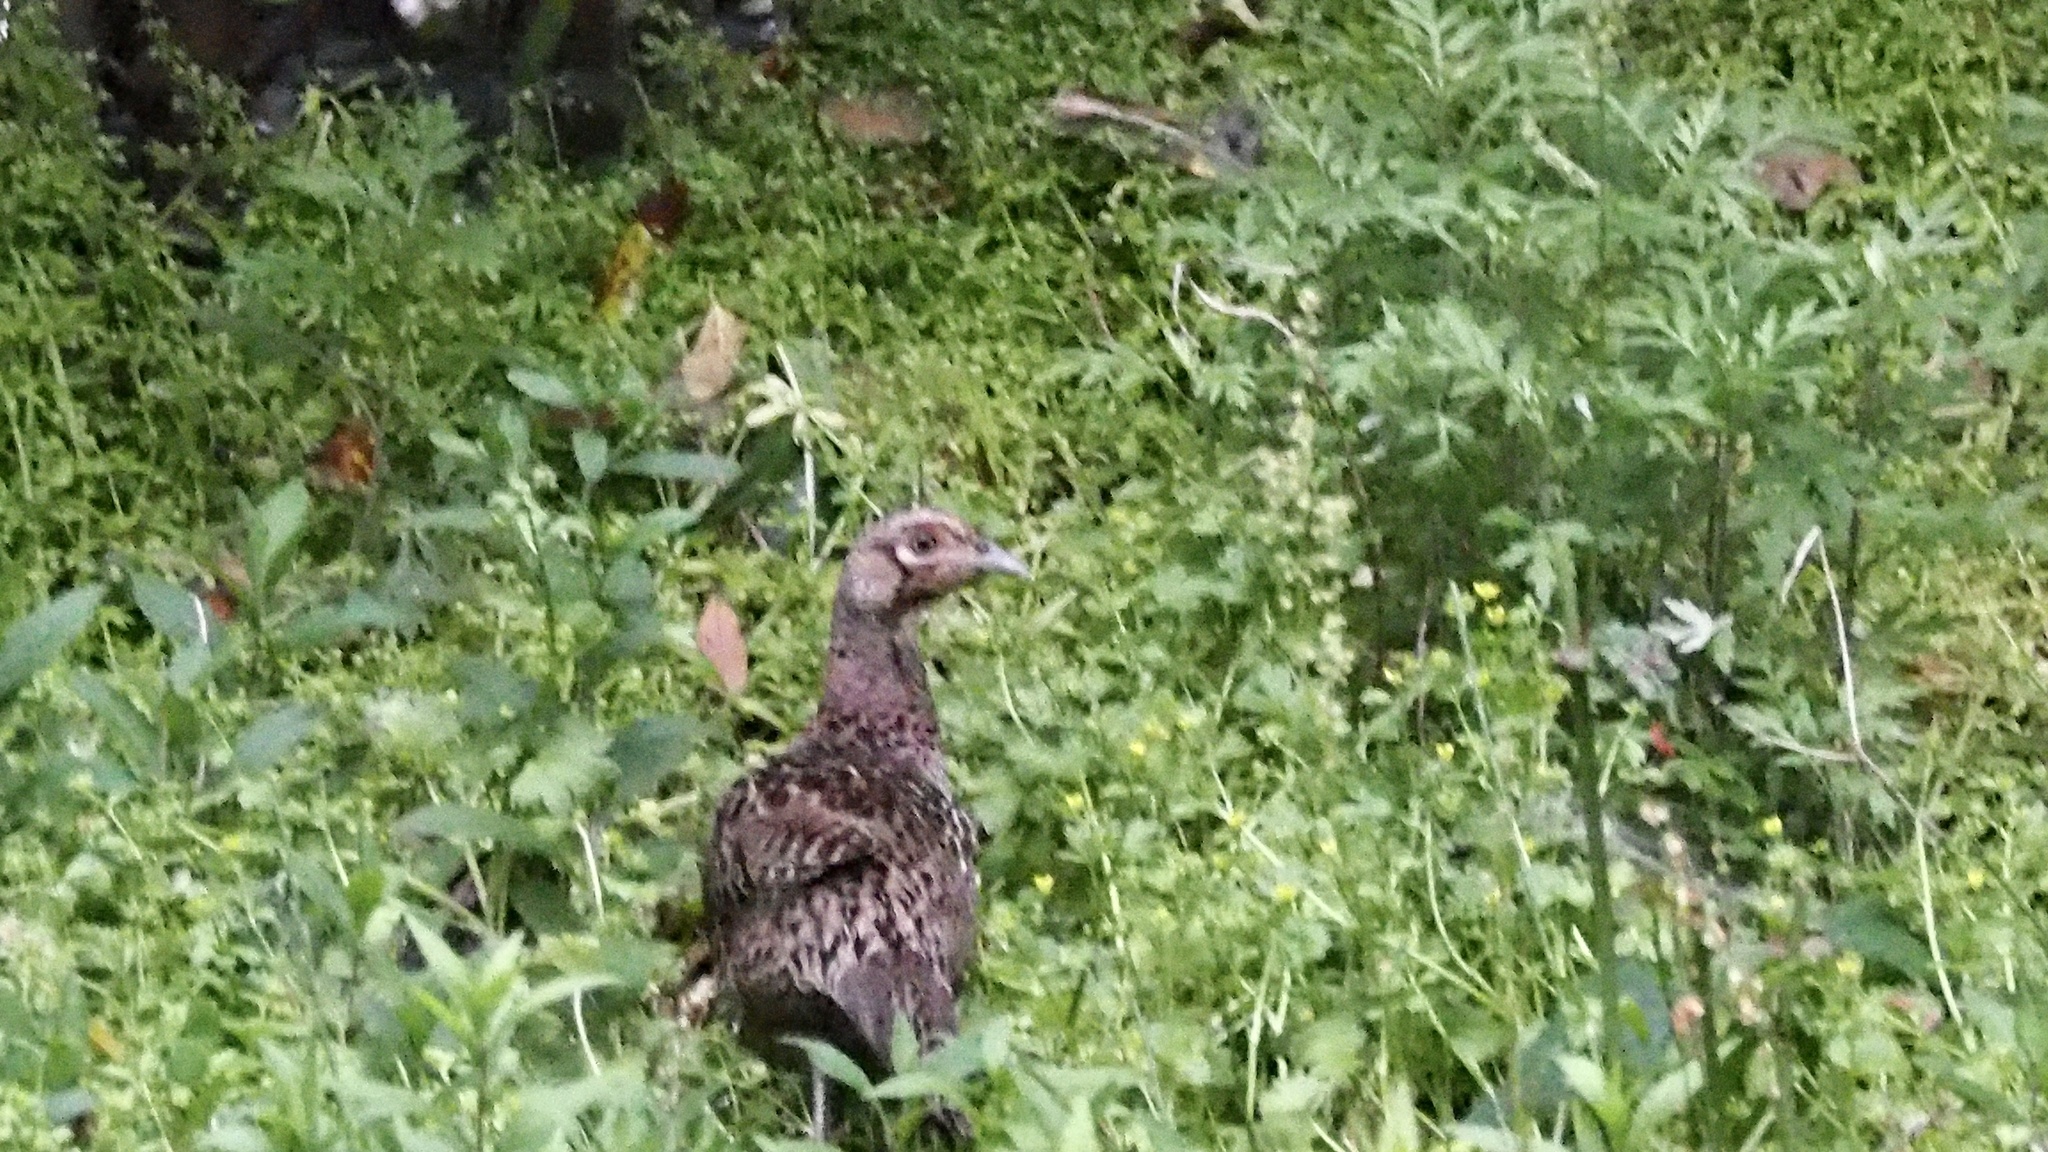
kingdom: Animalia
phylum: Chordata
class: Aves
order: Galliformes
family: Phasianidae
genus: Phasianus
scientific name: Phasianus versicolor
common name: Green pheasant
